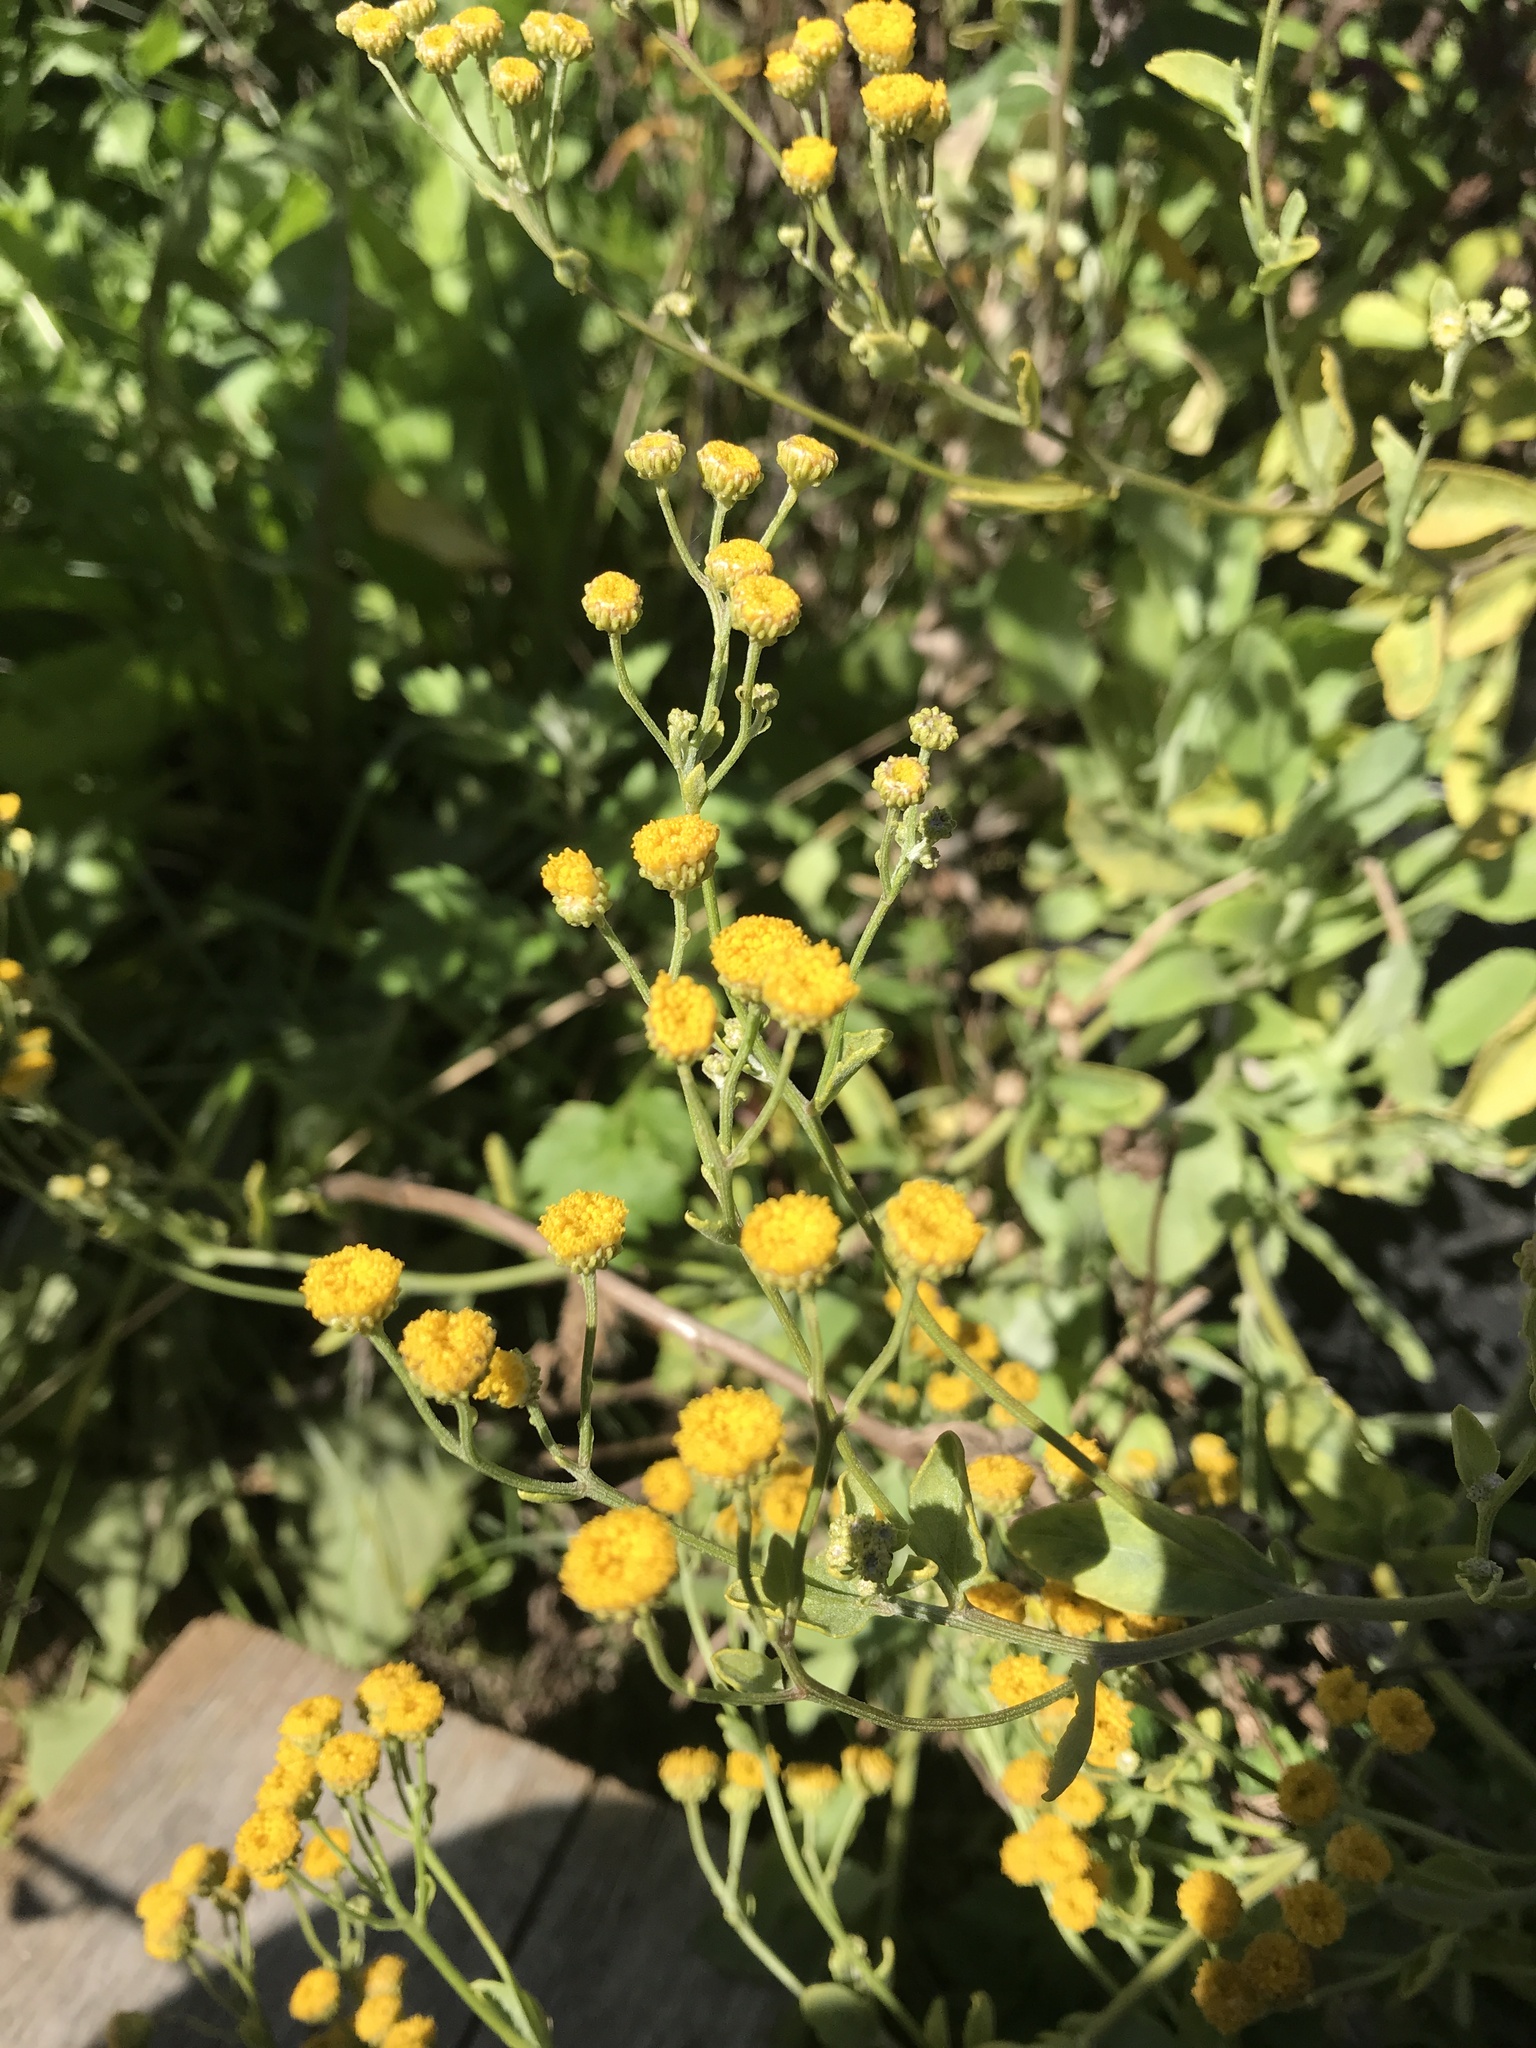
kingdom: Plantae
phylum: Tracheophyta
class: Magnoliopsida
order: Asterales
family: Asteraceae
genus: Tanacetum
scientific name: Tanacetum vulgare
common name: Common tansy
